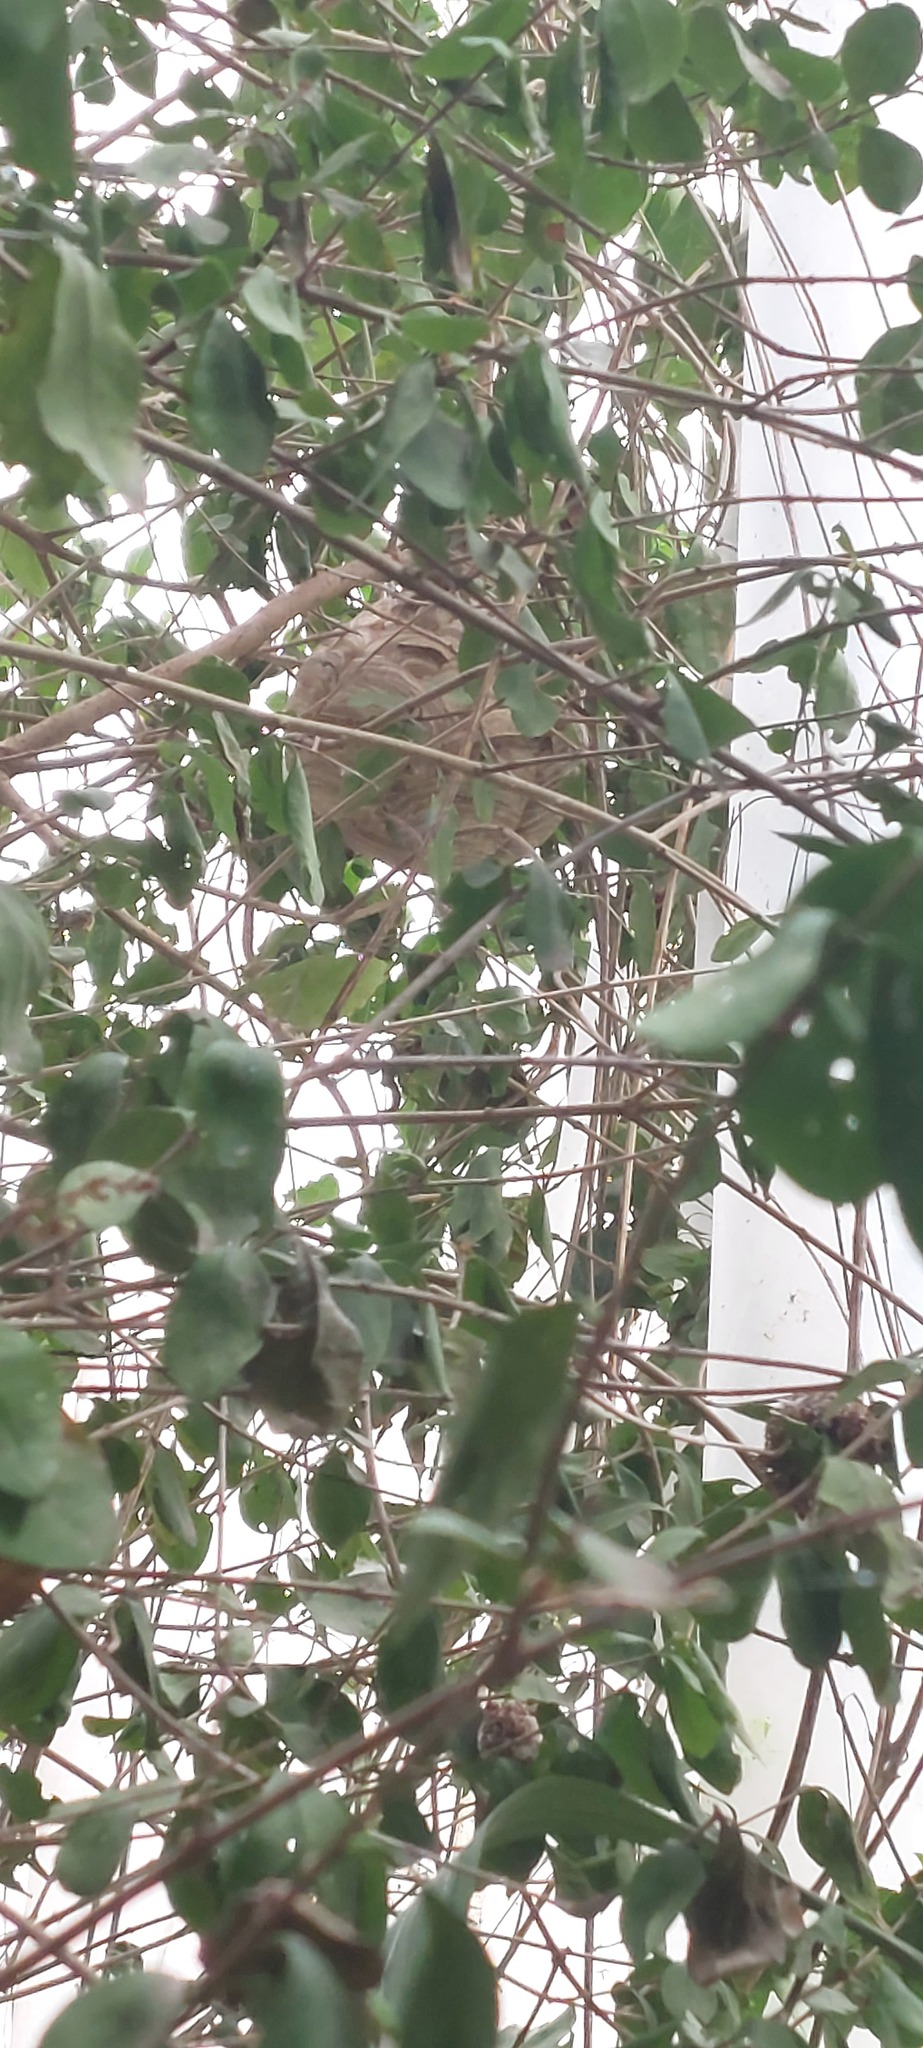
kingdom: Animalia
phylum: Arthropoda
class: Insecta
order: Hymenoptera
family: Vespidae
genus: Vespa
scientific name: Vespa velutina
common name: Asian hornet
